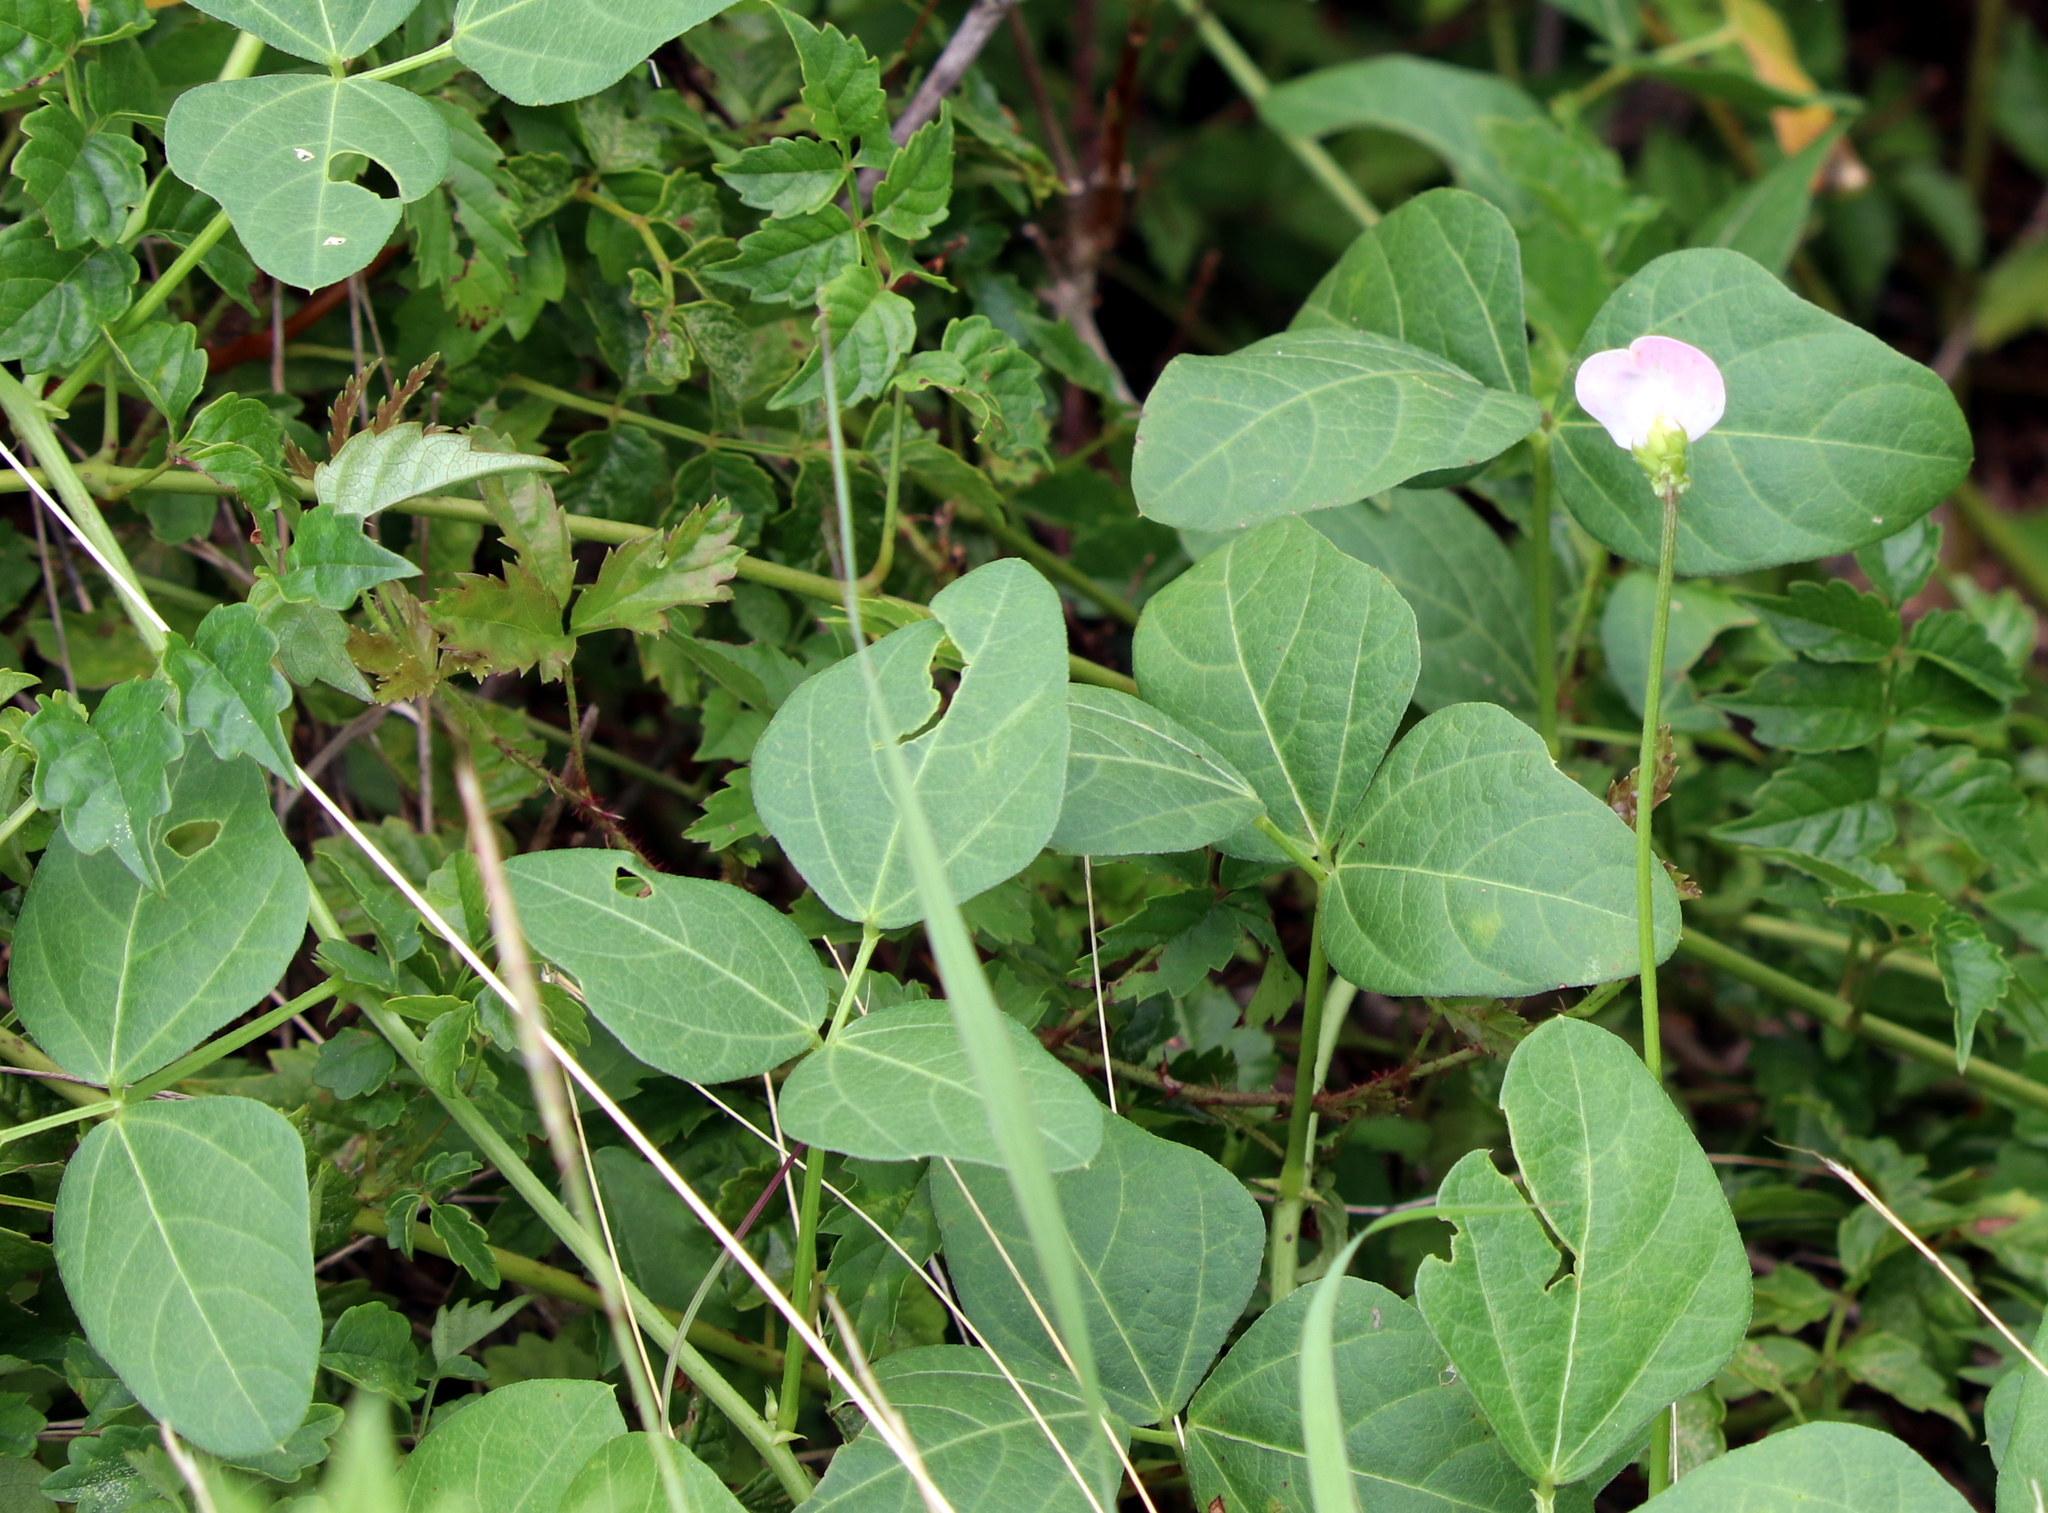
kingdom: Plantae
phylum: Tracheophyta
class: Magnoliopsida
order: Fabales
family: Fabaceae
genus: Strophostyles
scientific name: Strophostyles helvola
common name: Trailing wild bean
